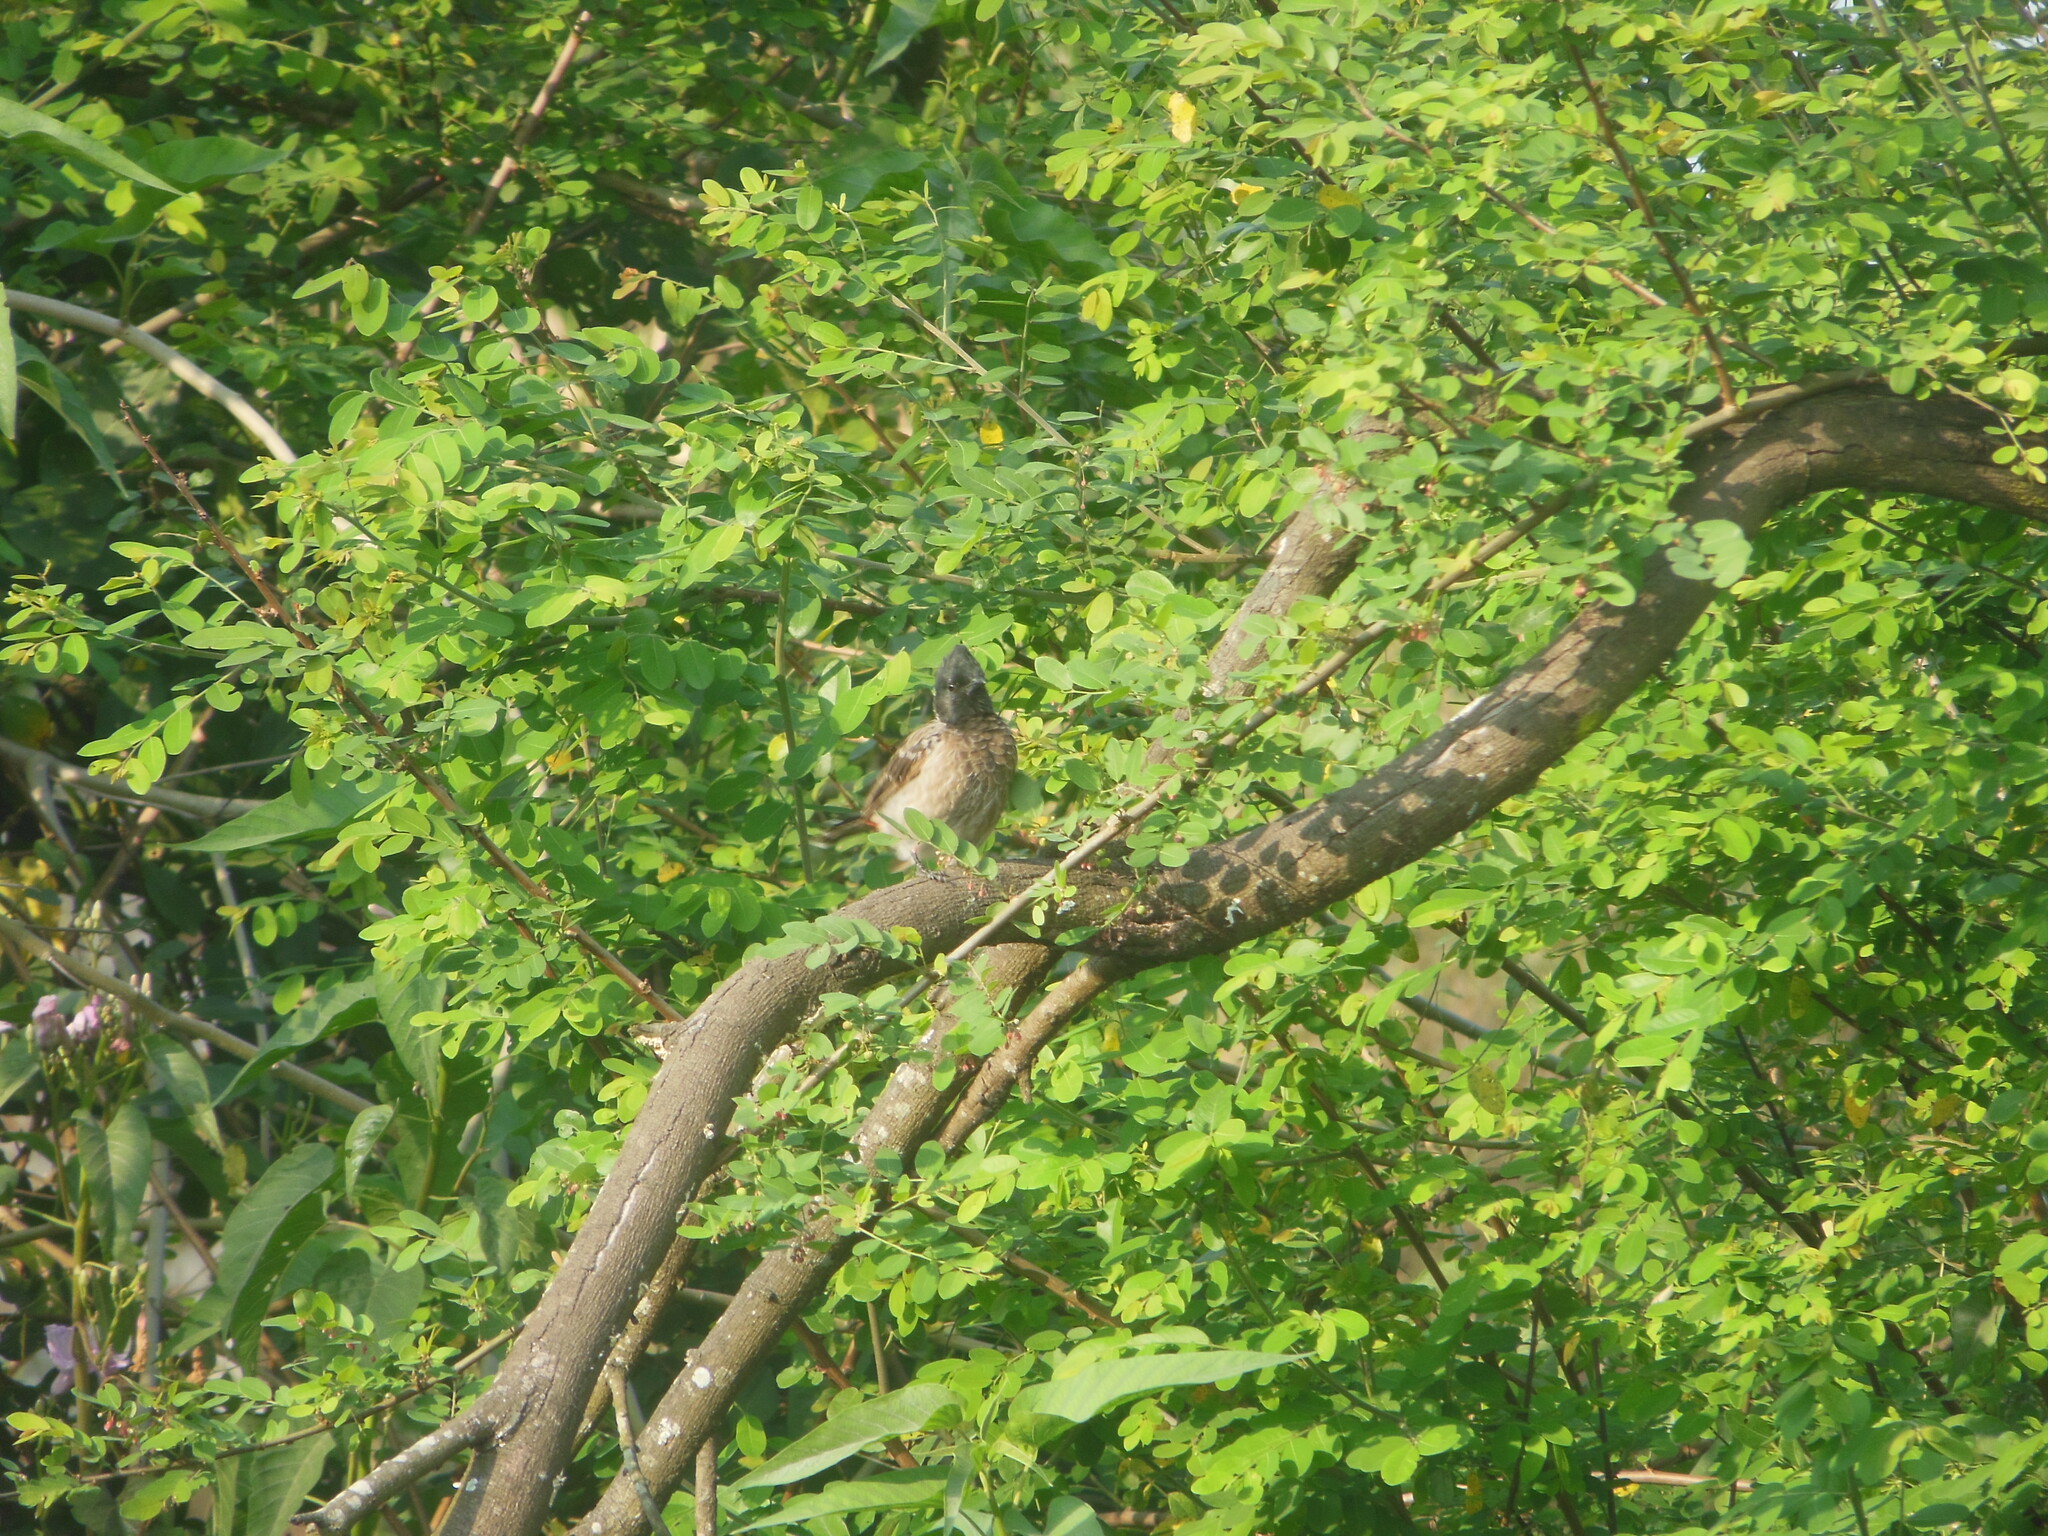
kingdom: Animalia
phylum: Chordata
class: Aves
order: Passeriformes
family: Pycnonotidae
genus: Pycnonotus
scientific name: Pycnonotus cafer
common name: Red-vented bulbul
